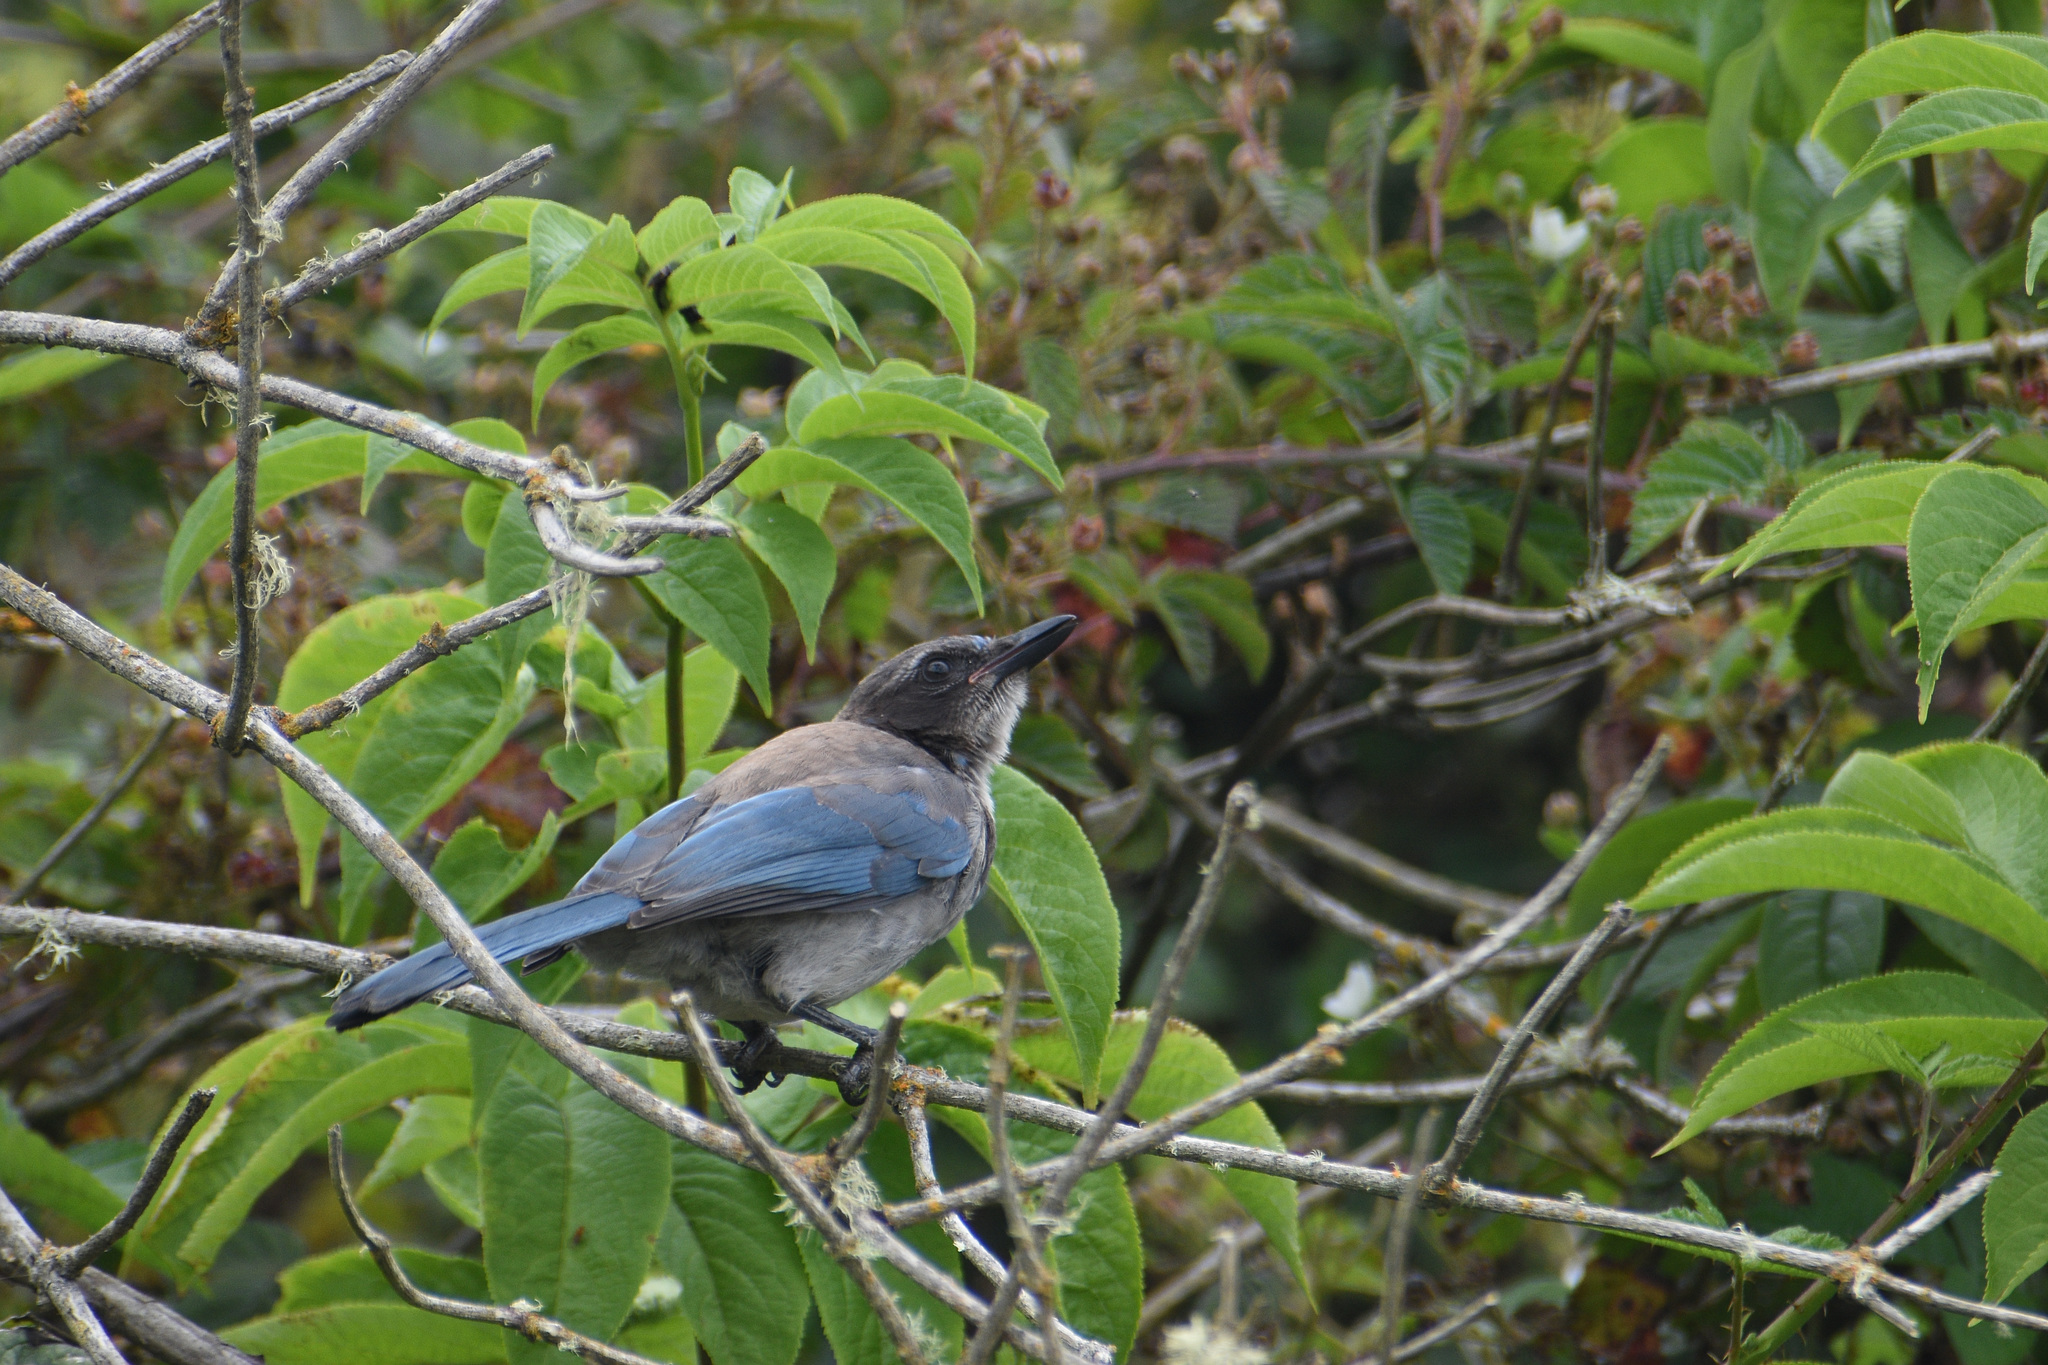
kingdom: Animalia
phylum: Chordata
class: Aves
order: Passeriformes
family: Corvidae
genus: Aphelocoma
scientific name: Aphelocoma californica
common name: California scrub-jay
